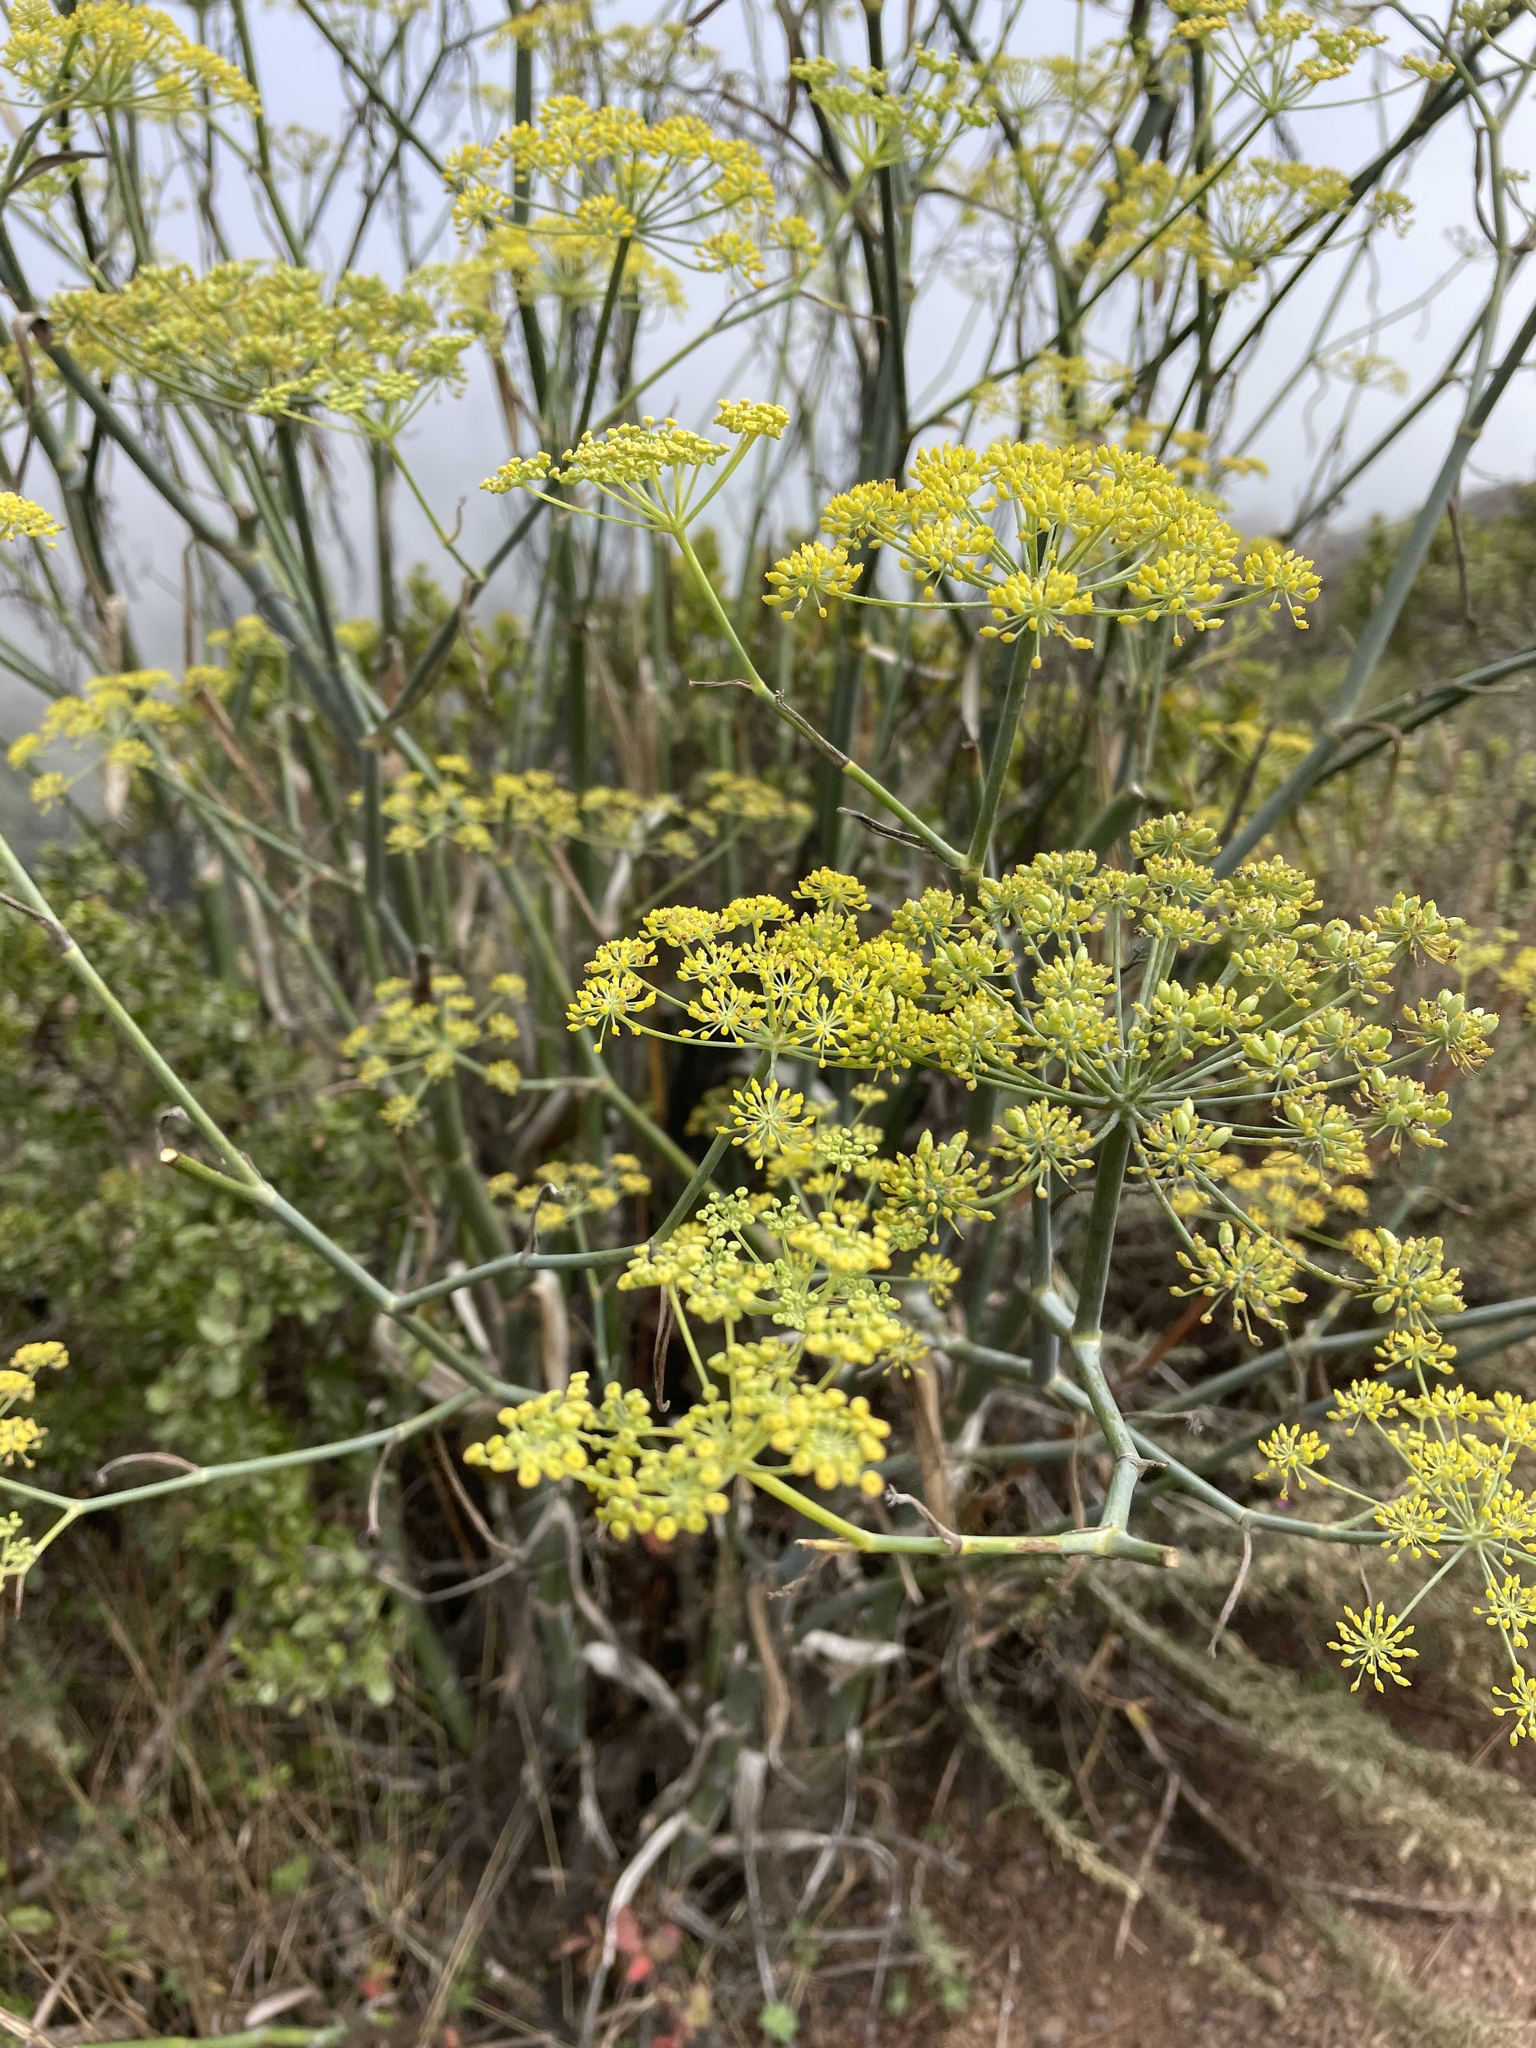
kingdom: Plantae
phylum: Tracheophyta
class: Magnoliopsida
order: Apiales
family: Apiaceae
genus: Foeniculum
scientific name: Foeniculum vulgare
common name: Fennel
